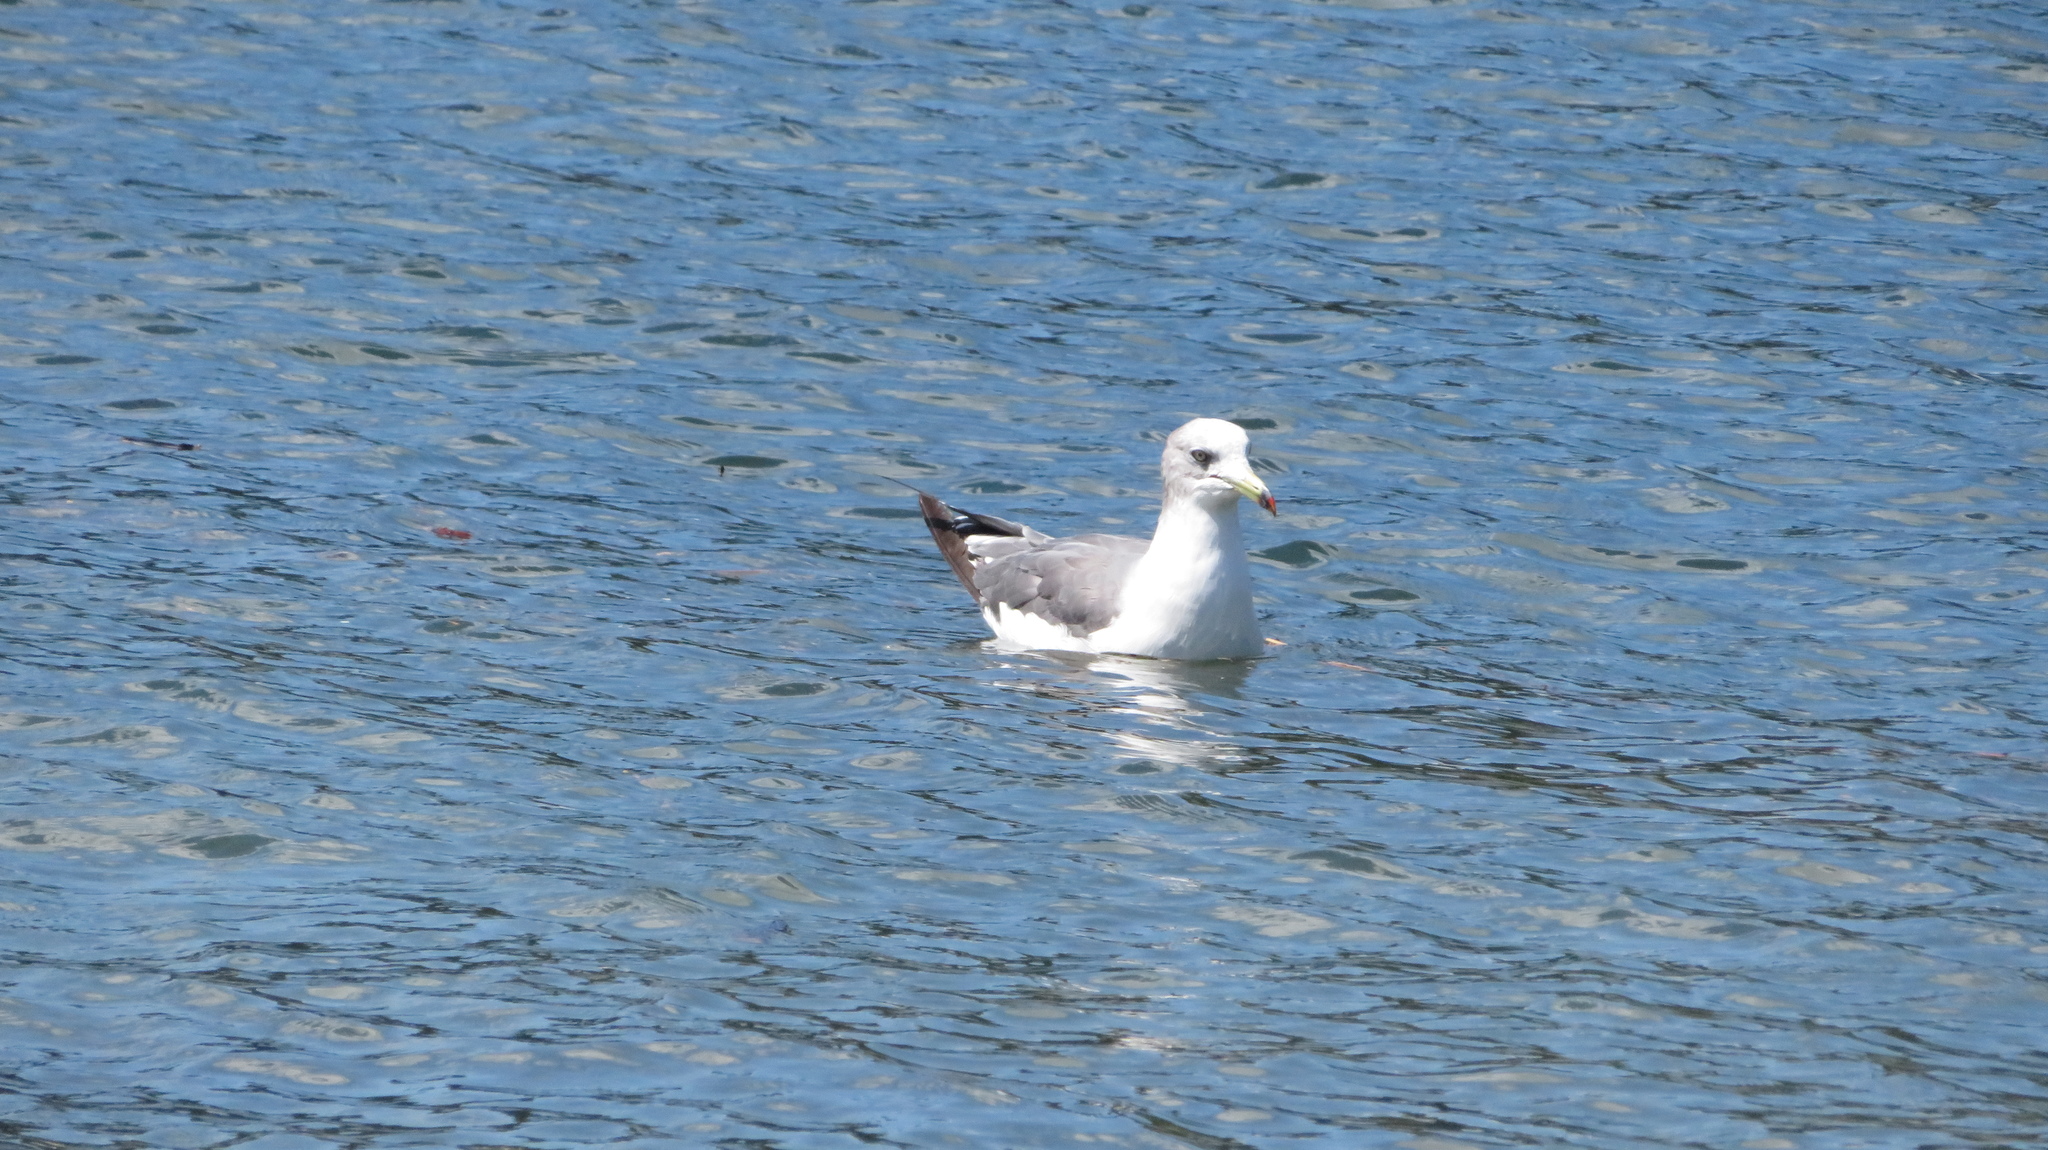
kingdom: Animalia
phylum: Chordata
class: Aves
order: Charadriiformes
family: Laridae
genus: Larus
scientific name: Larus crassirostris
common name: Black-tailed gull
